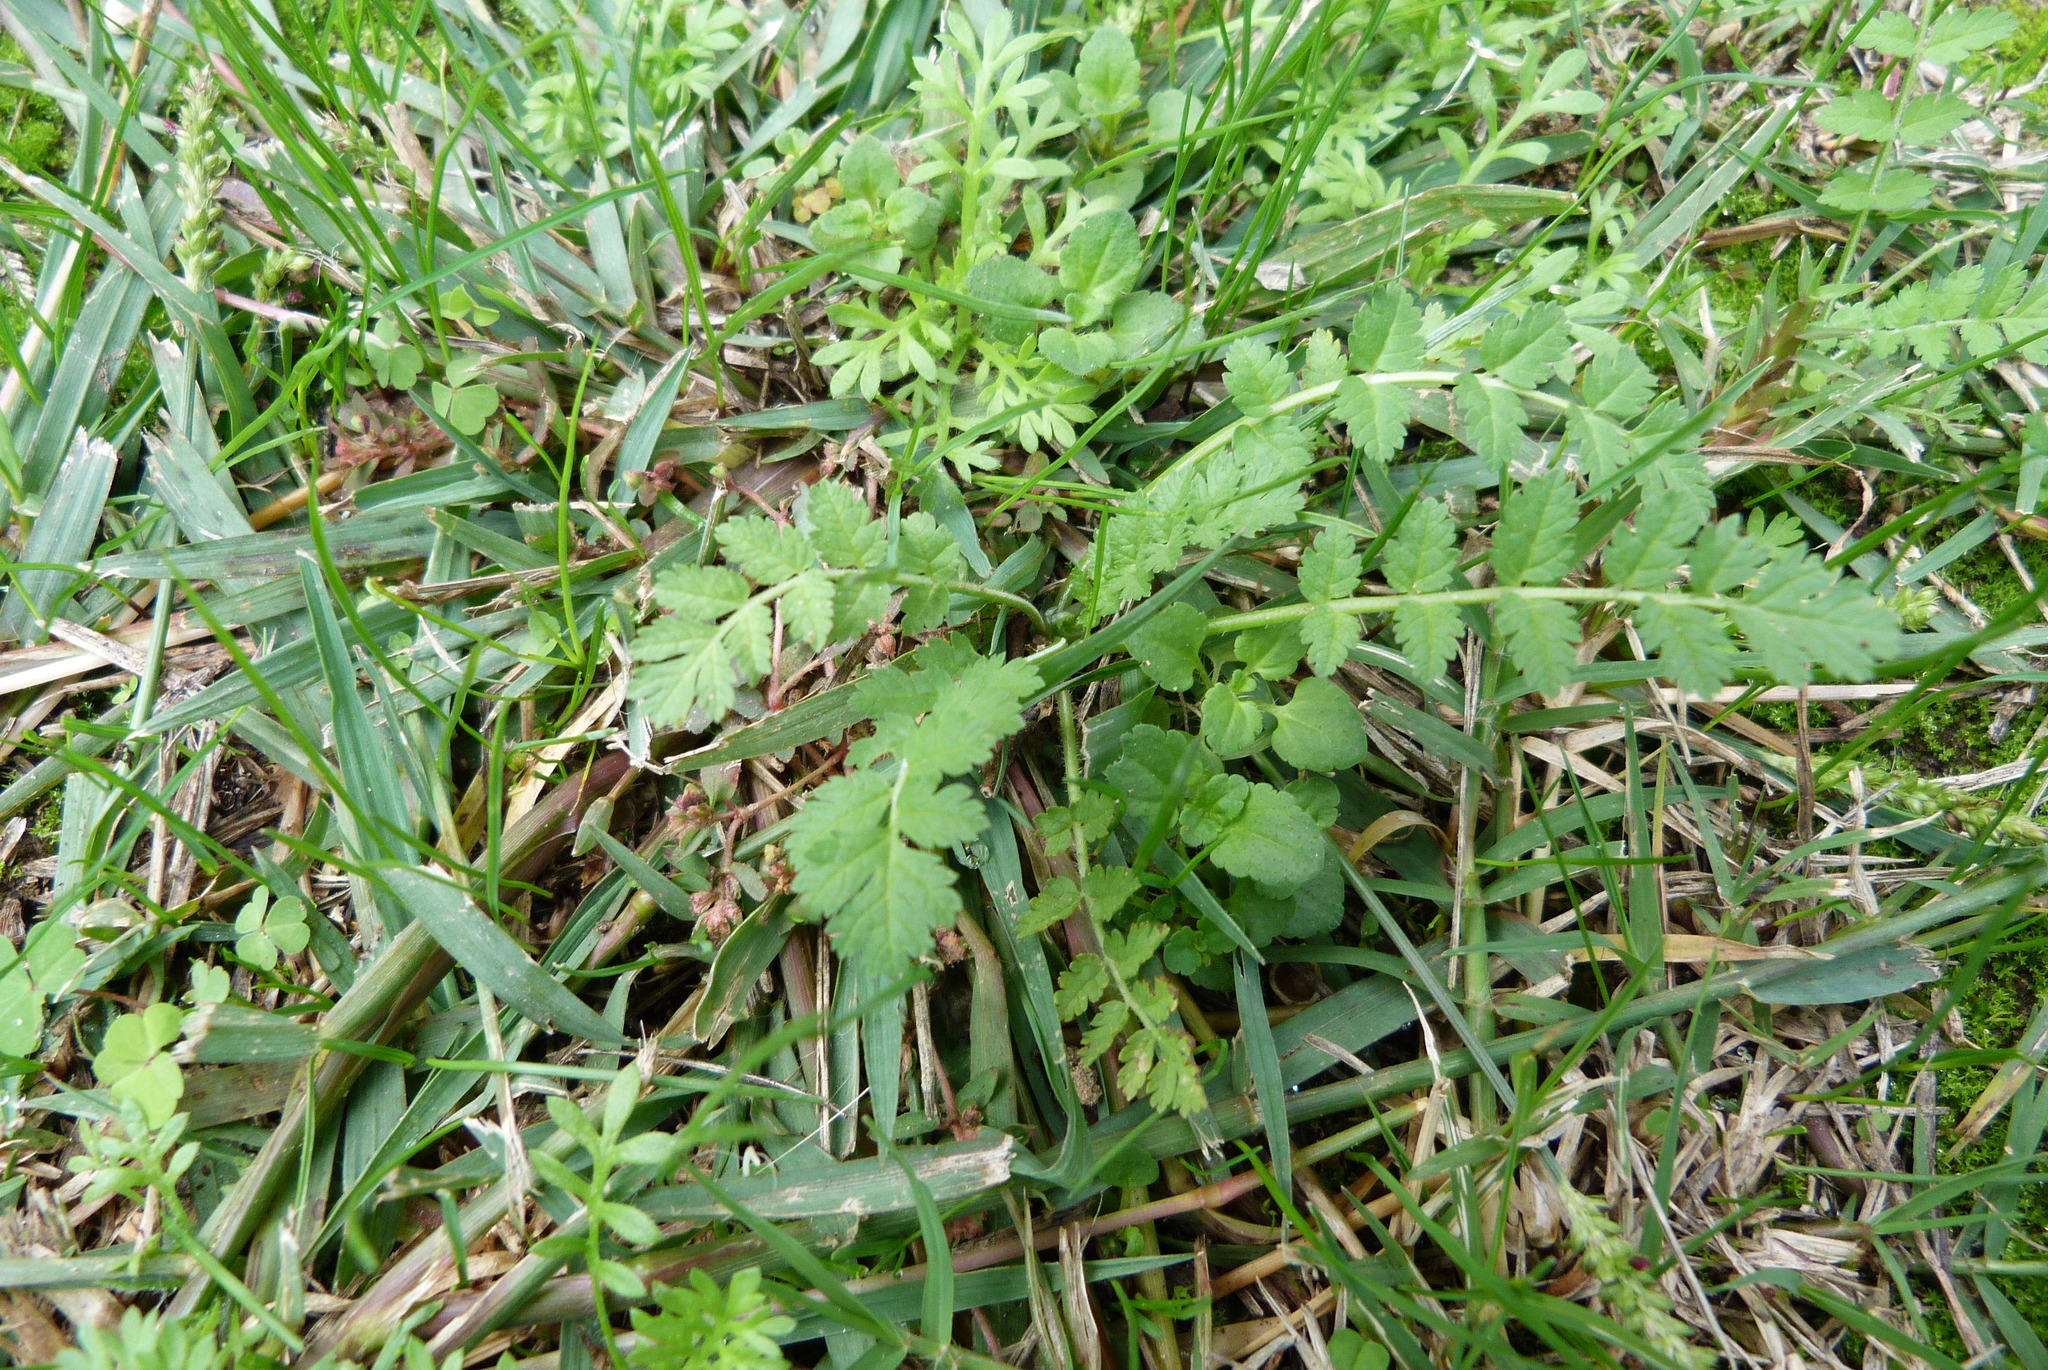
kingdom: Plantae
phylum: Tracheophyta
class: Magnoliopsida
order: Geraniales
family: Geraniaceae
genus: Erodium
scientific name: Erodium moschatum
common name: Musk stork's-bill
